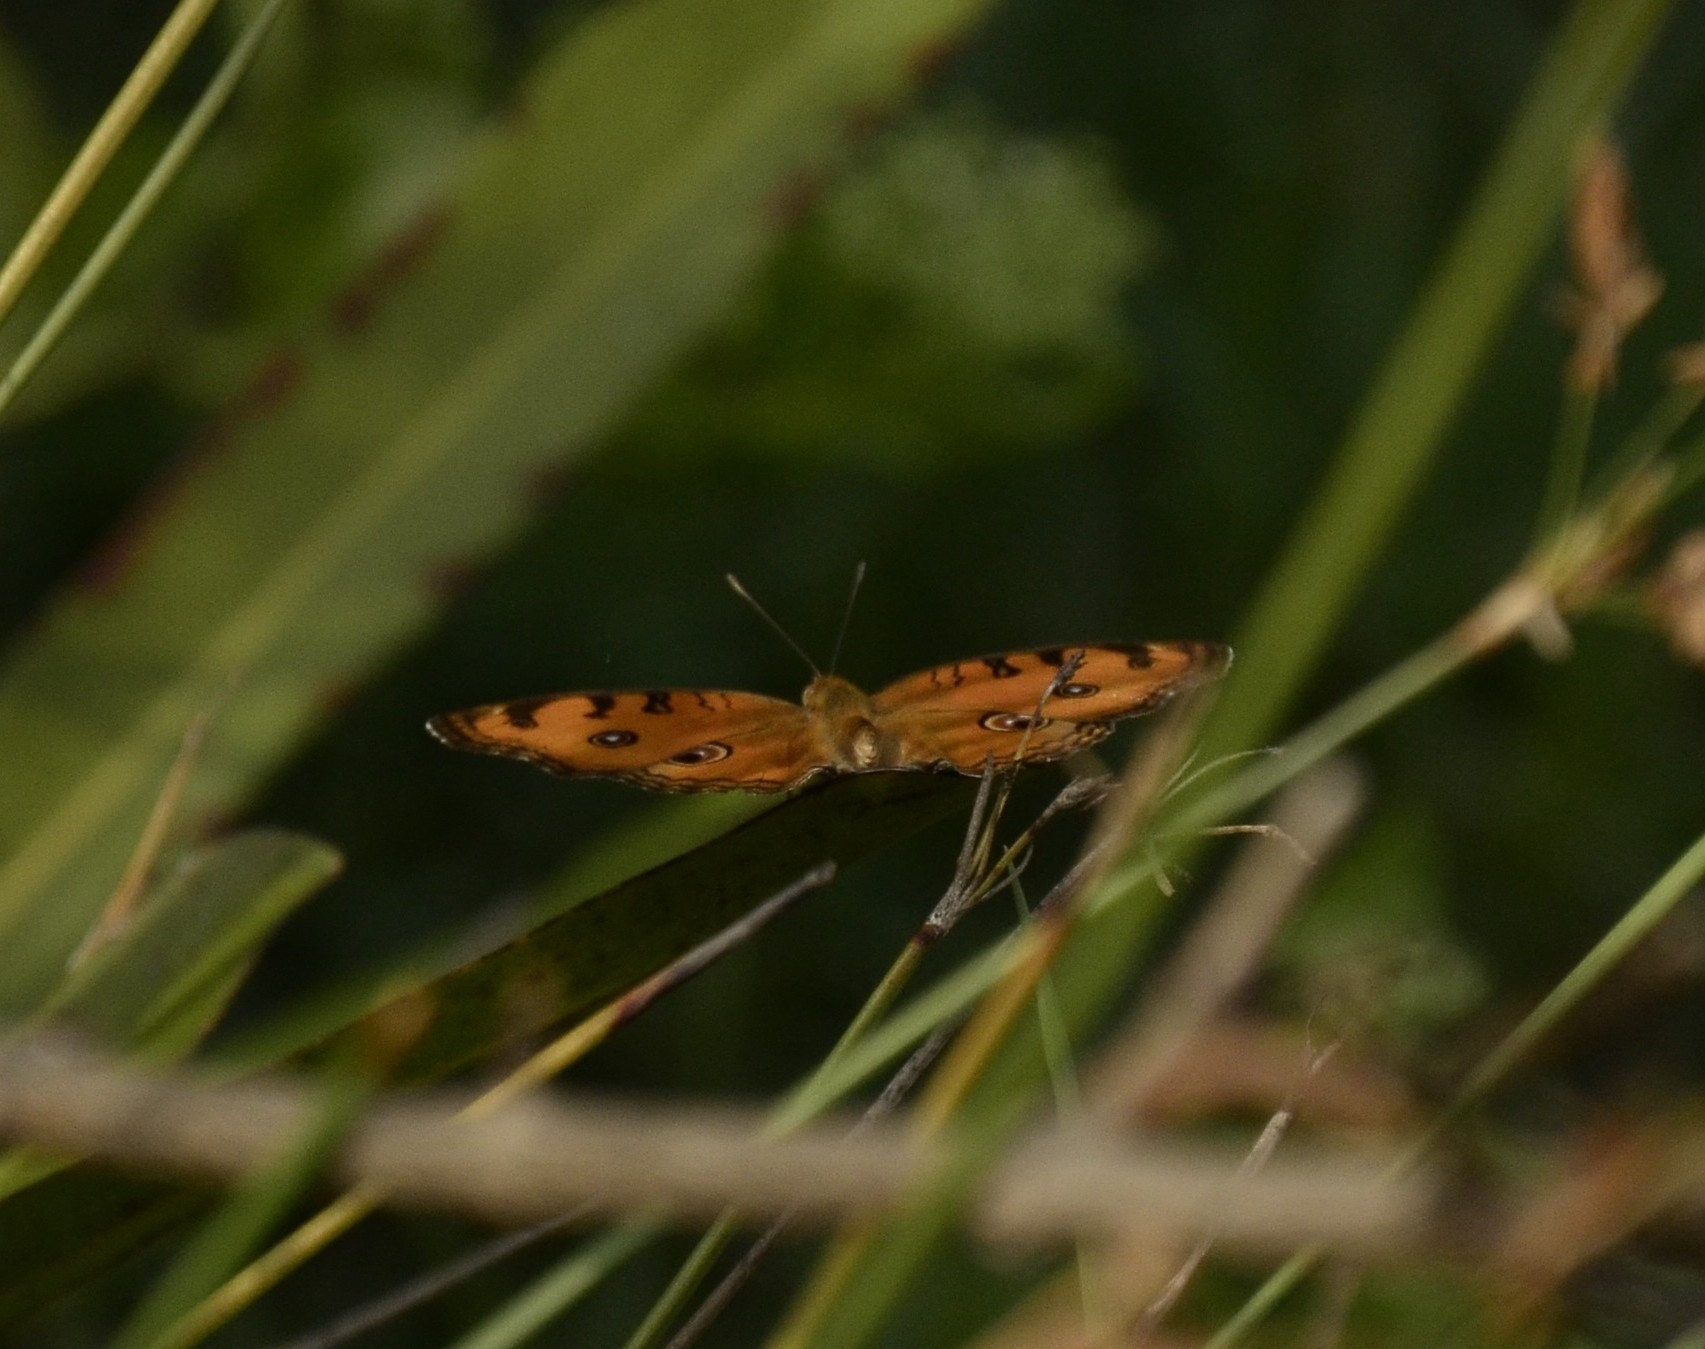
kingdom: Animalia
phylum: Arthropoda
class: Insecta
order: Lepidoptera
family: Nymphalidae
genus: Junonia
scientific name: Junonia almana
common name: Peacock pansy
